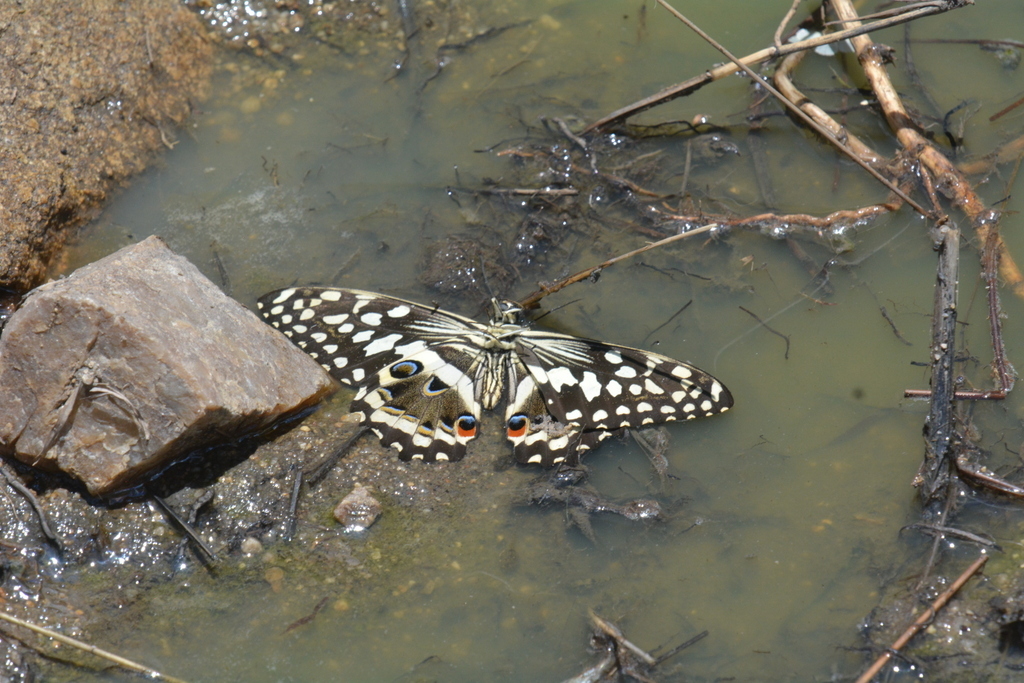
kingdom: Animalia
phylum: Arthropoda
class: Insecta
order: Lepidoptera
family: Papilionidae
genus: Papilio
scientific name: Papilio demodocus
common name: Christmas butterfly
